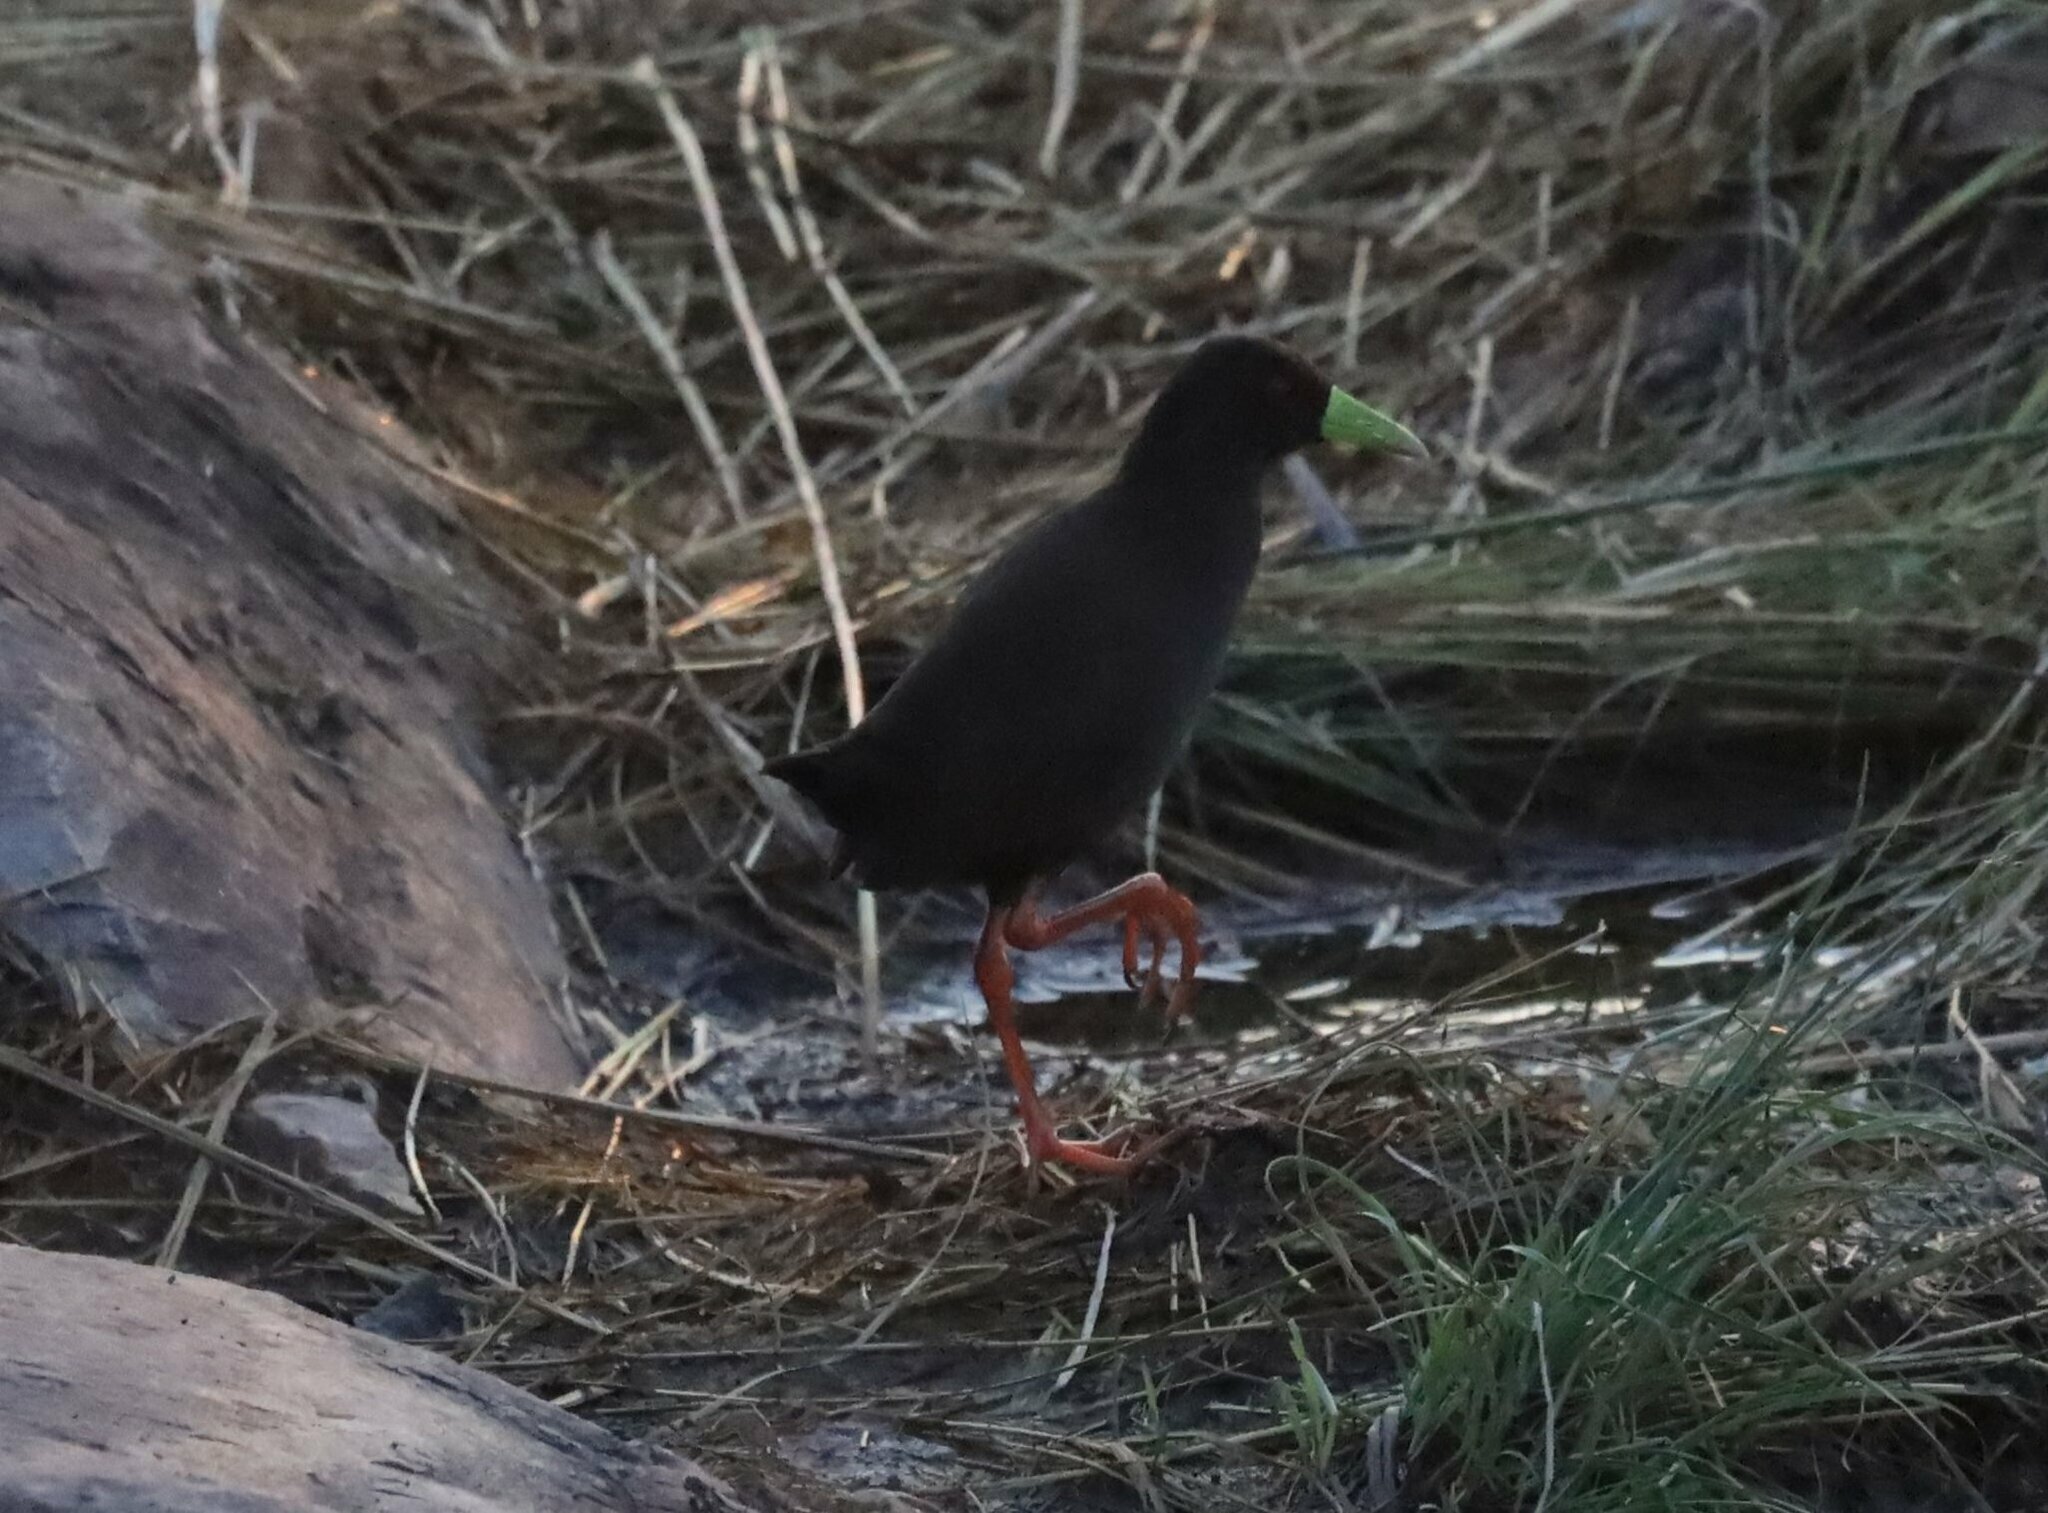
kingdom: Animalia
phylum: Chordata
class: Aves
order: Gruiformes
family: Rallidae
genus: Amaurornis
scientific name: Amaurornis flavirostra
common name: Black crake
